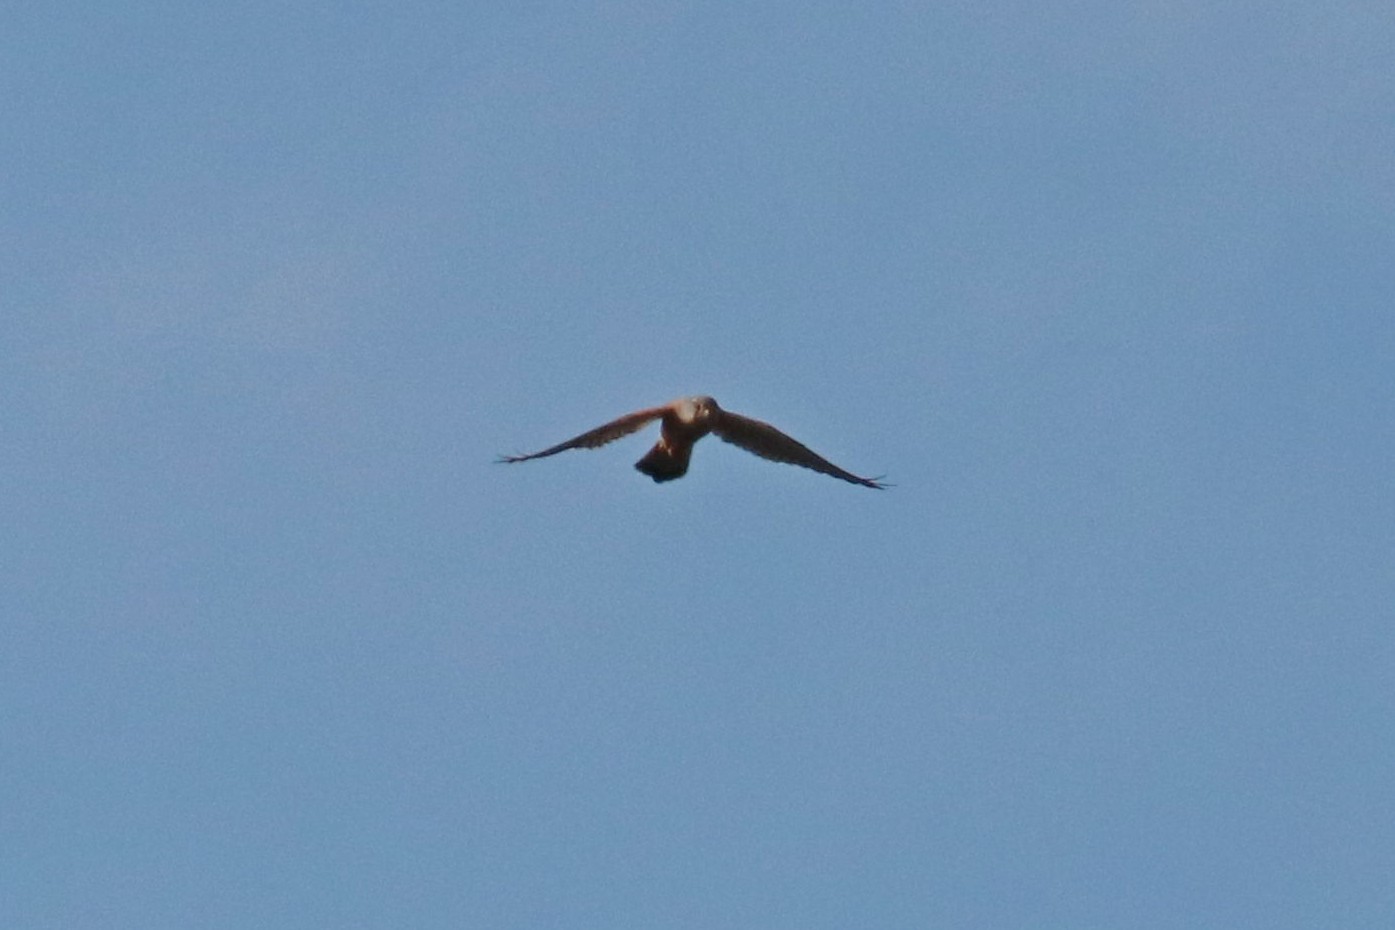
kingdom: Animalia
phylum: Chordata
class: Aves
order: Falconiformes
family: Falconidae
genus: Falco
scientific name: Falco tinnunculus
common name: Common kestrel
